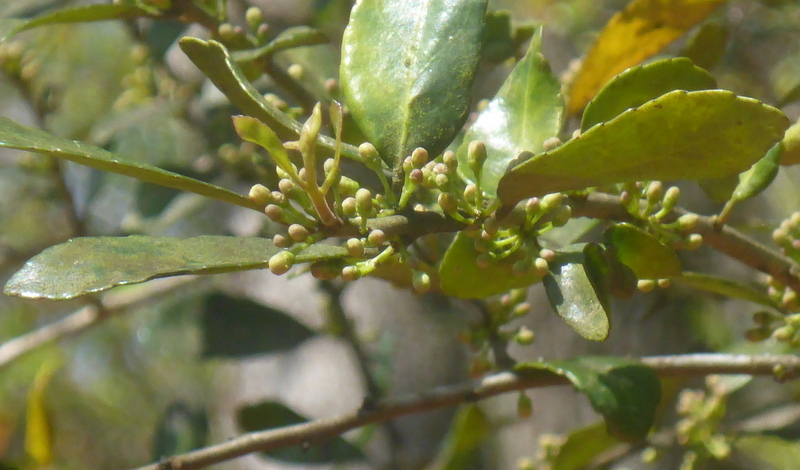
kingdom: Plantae
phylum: Tracheophyta
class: Magnoliopsida
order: Aquifoliales
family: Aquifoliaceae
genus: Ilex
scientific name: Ilex vomitoria
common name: Yaupon holly
